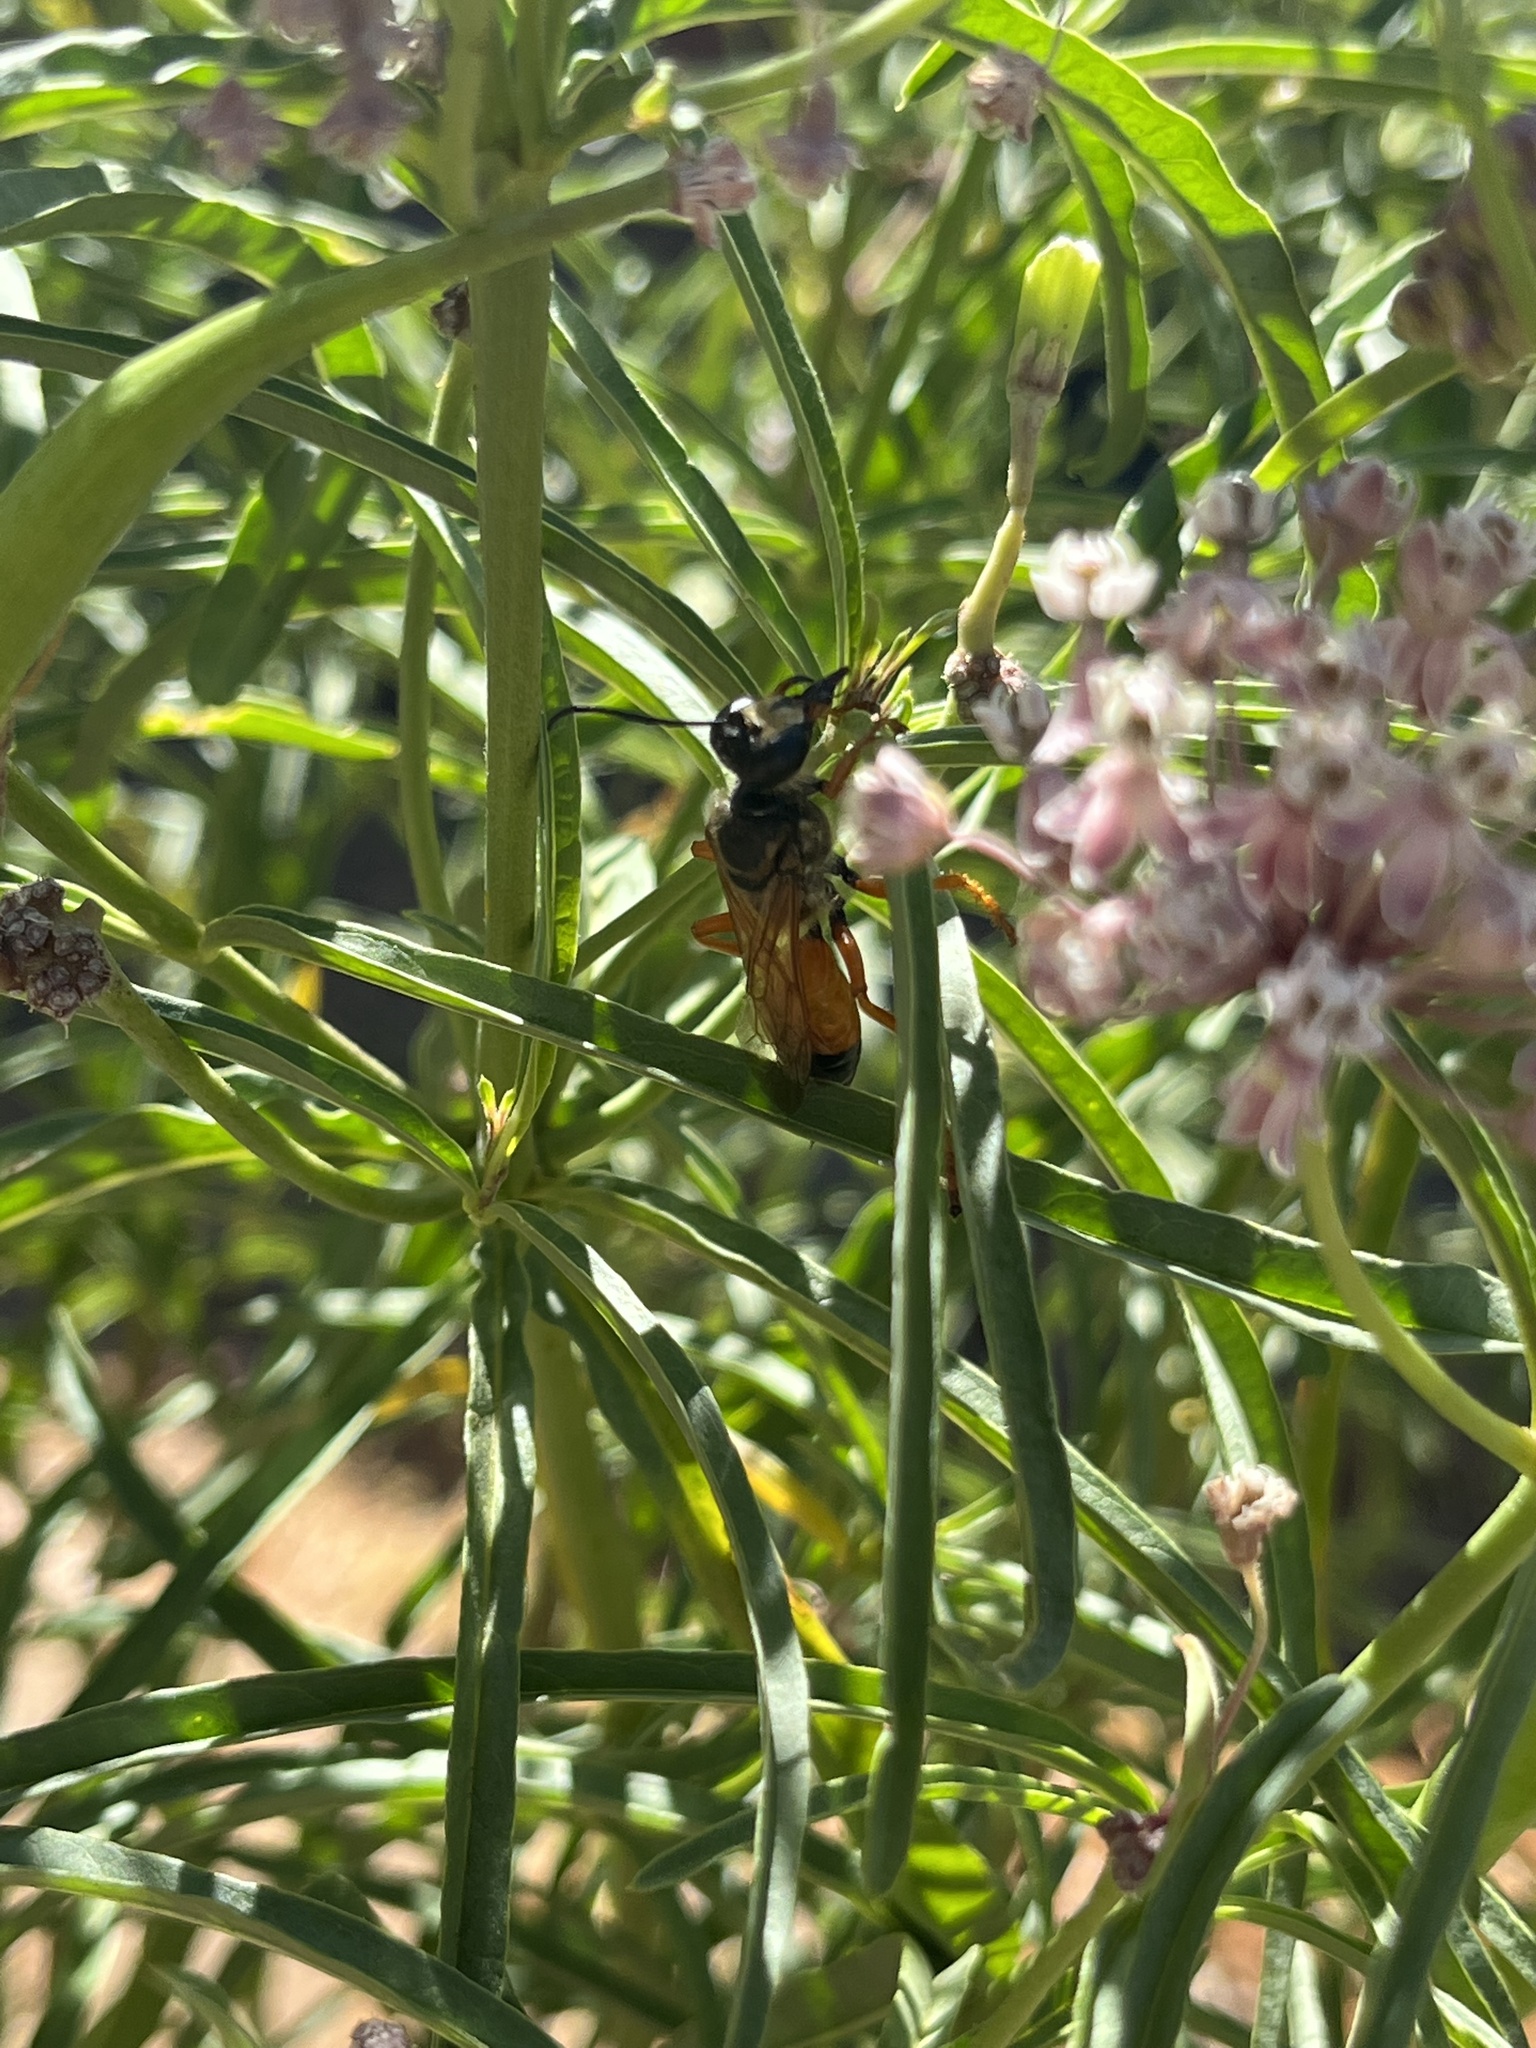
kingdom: Animalia
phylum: Arthropoda
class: Insecta
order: Hymenoptera
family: Sphecidae
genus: Sphex
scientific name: Sphex ichneumoneus
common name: Great golden digger wasp
